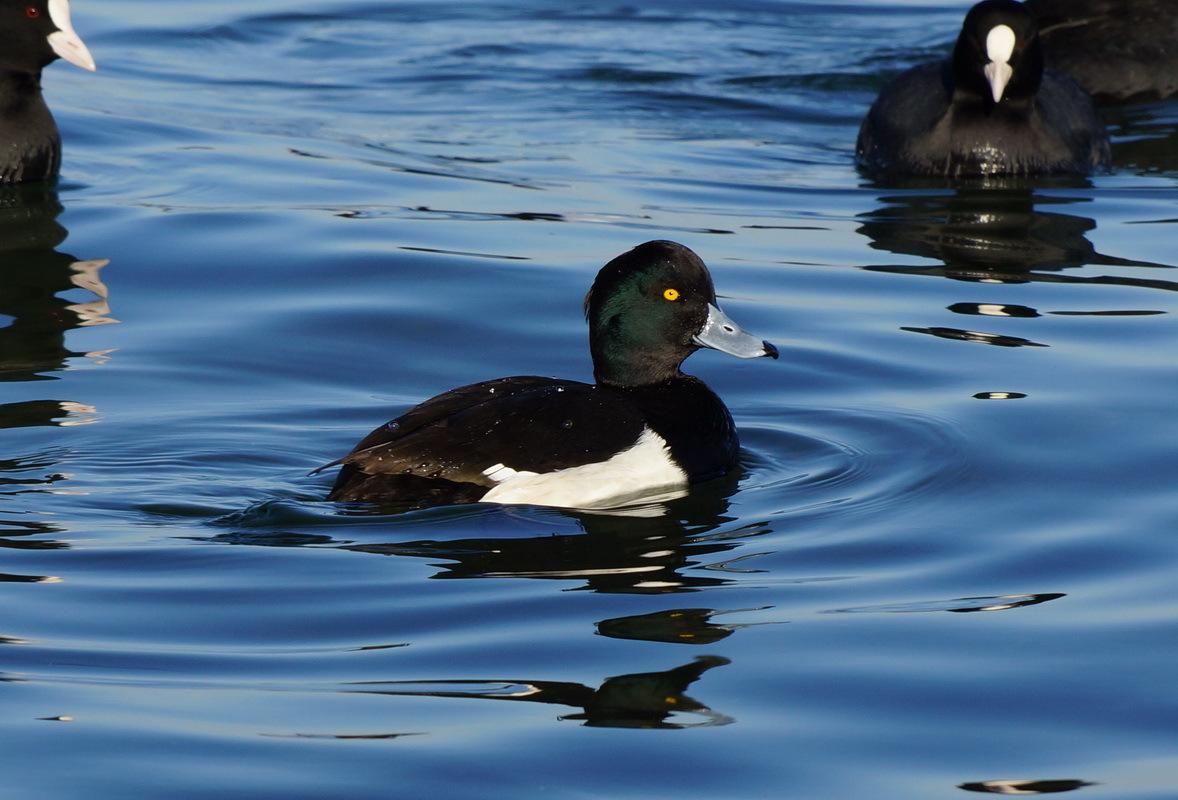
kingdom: Animalia
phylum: Chordata
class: Aves
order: Anseriformes
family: Anatidae
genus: Aythya
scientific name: Aythya fuligula
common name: Tufted duck
